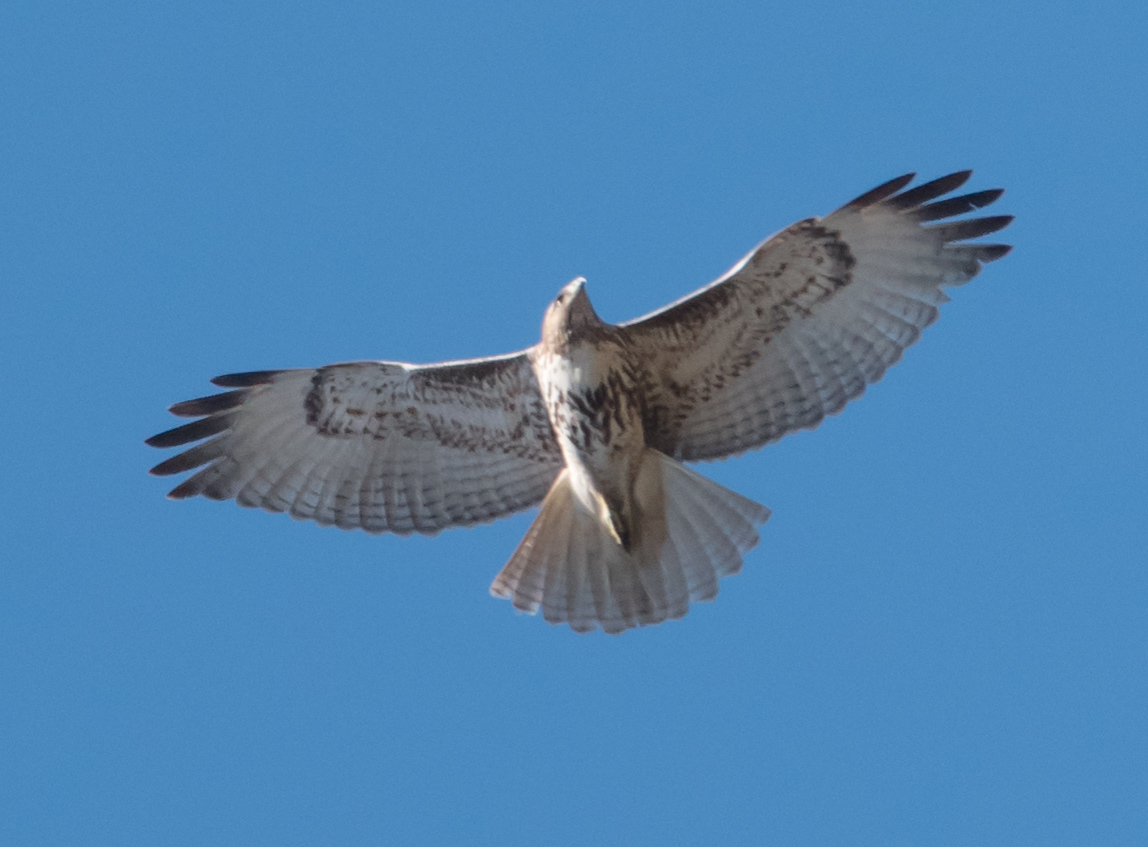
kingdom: Animalia
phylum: Chordata
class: Aves
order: Accipitriformes
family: Accipitridae
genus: Buteo
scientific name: Buteo jamaicensis
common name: Red-tailed hawk
